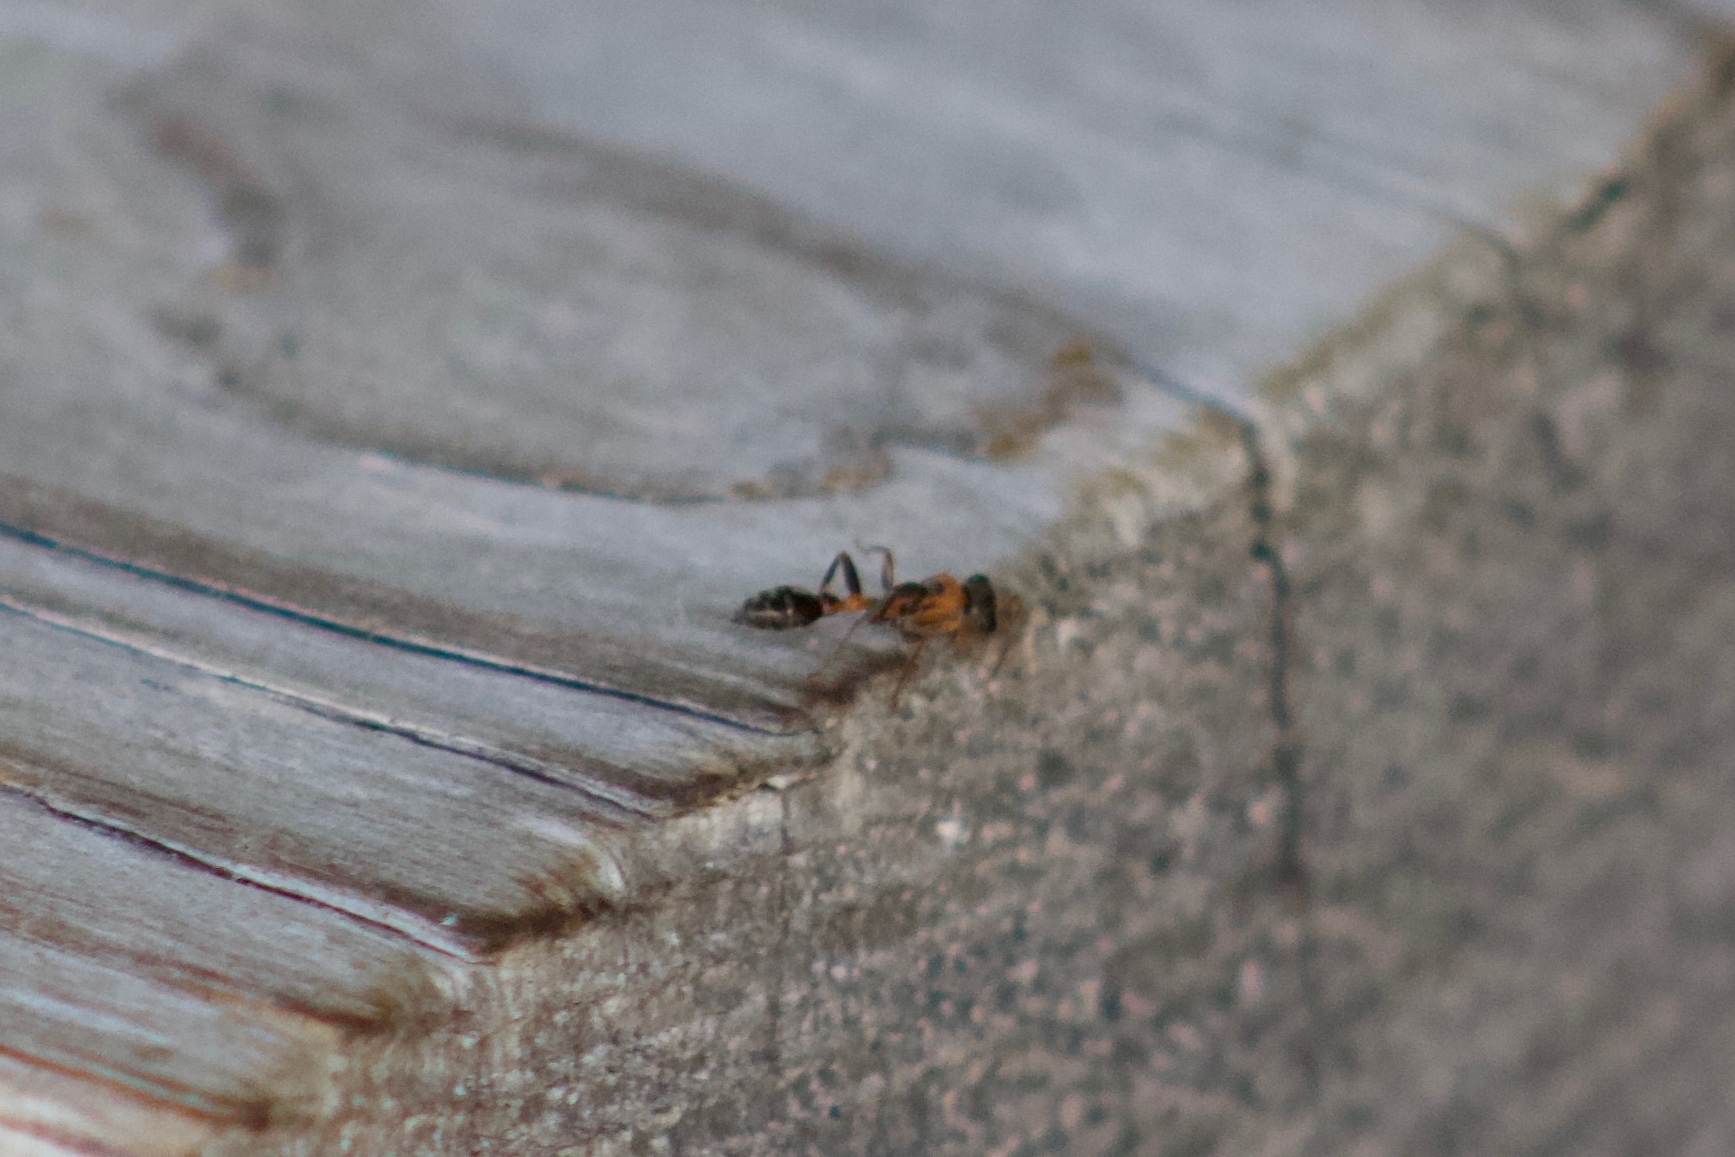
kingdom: Animalia
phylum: Arthropoda
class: Insecta
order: Hymenoptera
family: Formicidae
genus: Pseudomyrmex
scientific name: Pseudomyrmex gracilis
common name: Graceful twig ant
